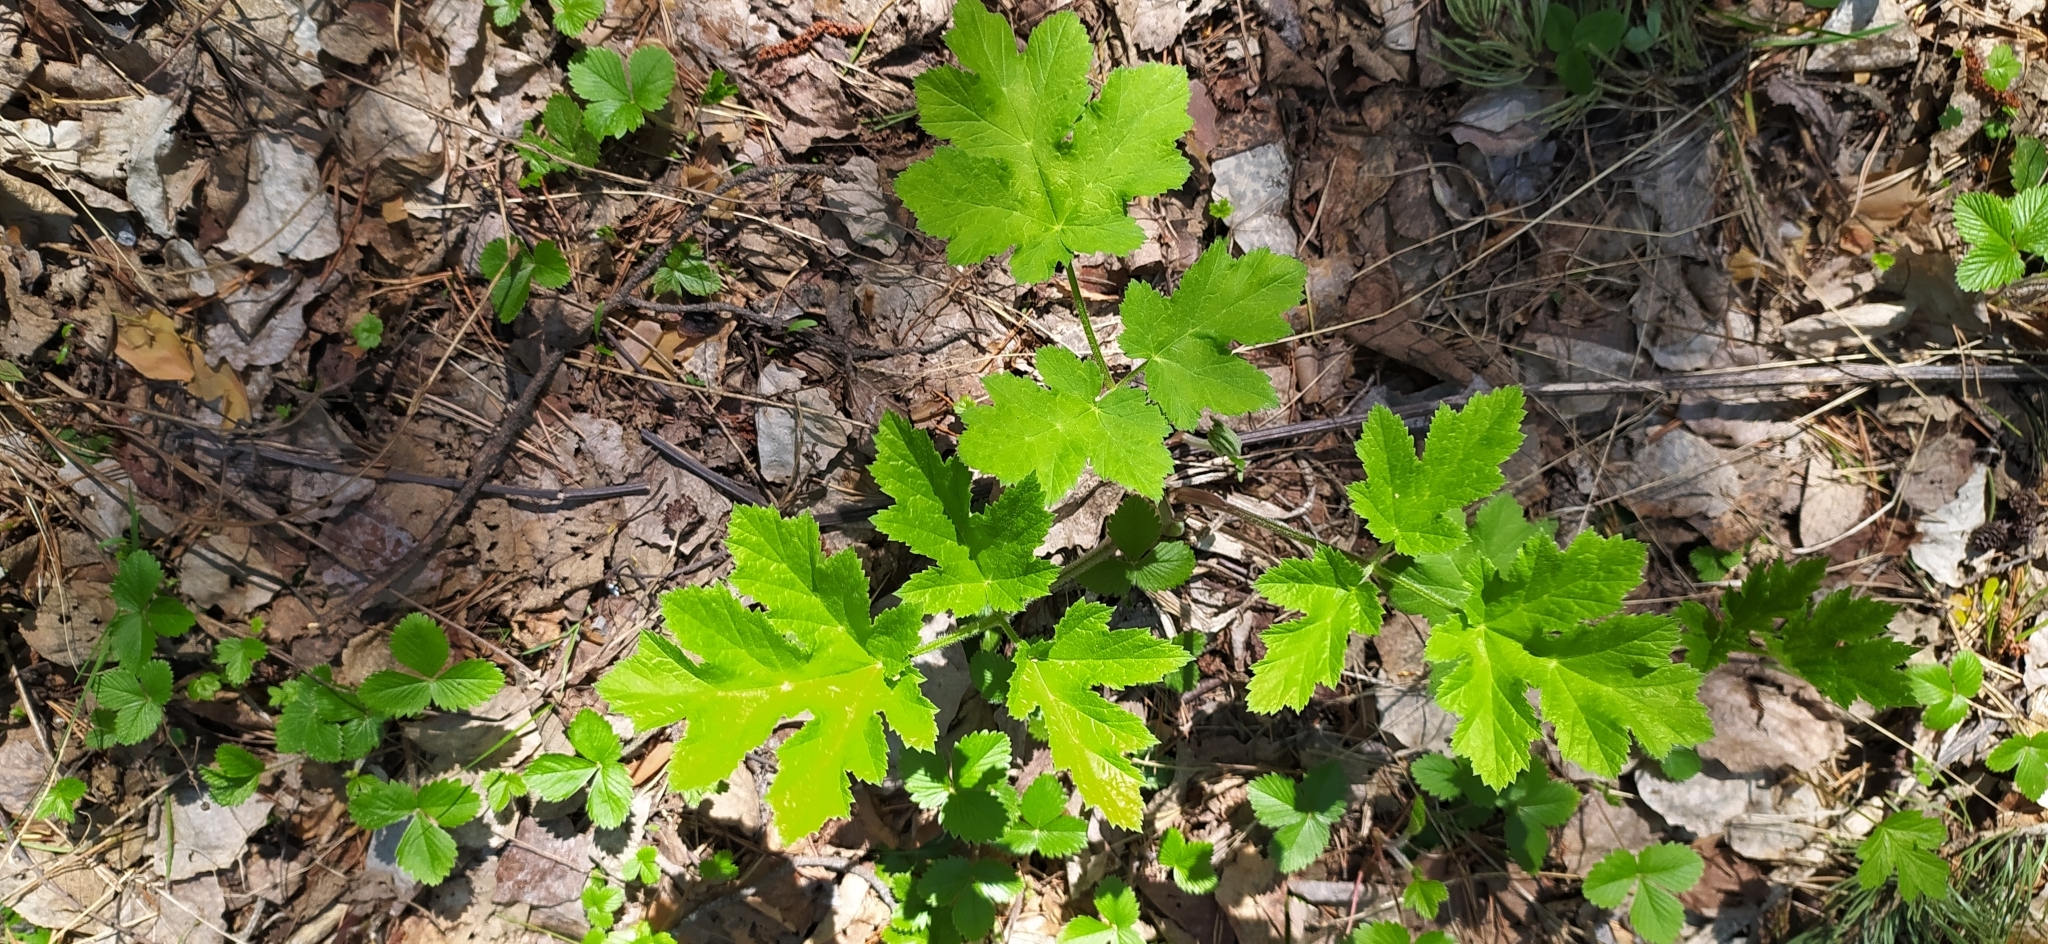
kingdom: Plantae
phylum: Tracheophyta
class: Magnoliopsida
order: Apiales
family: Apiaceae
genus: Heracleum
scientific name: Heracleum sphondylium
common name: Hogweed
